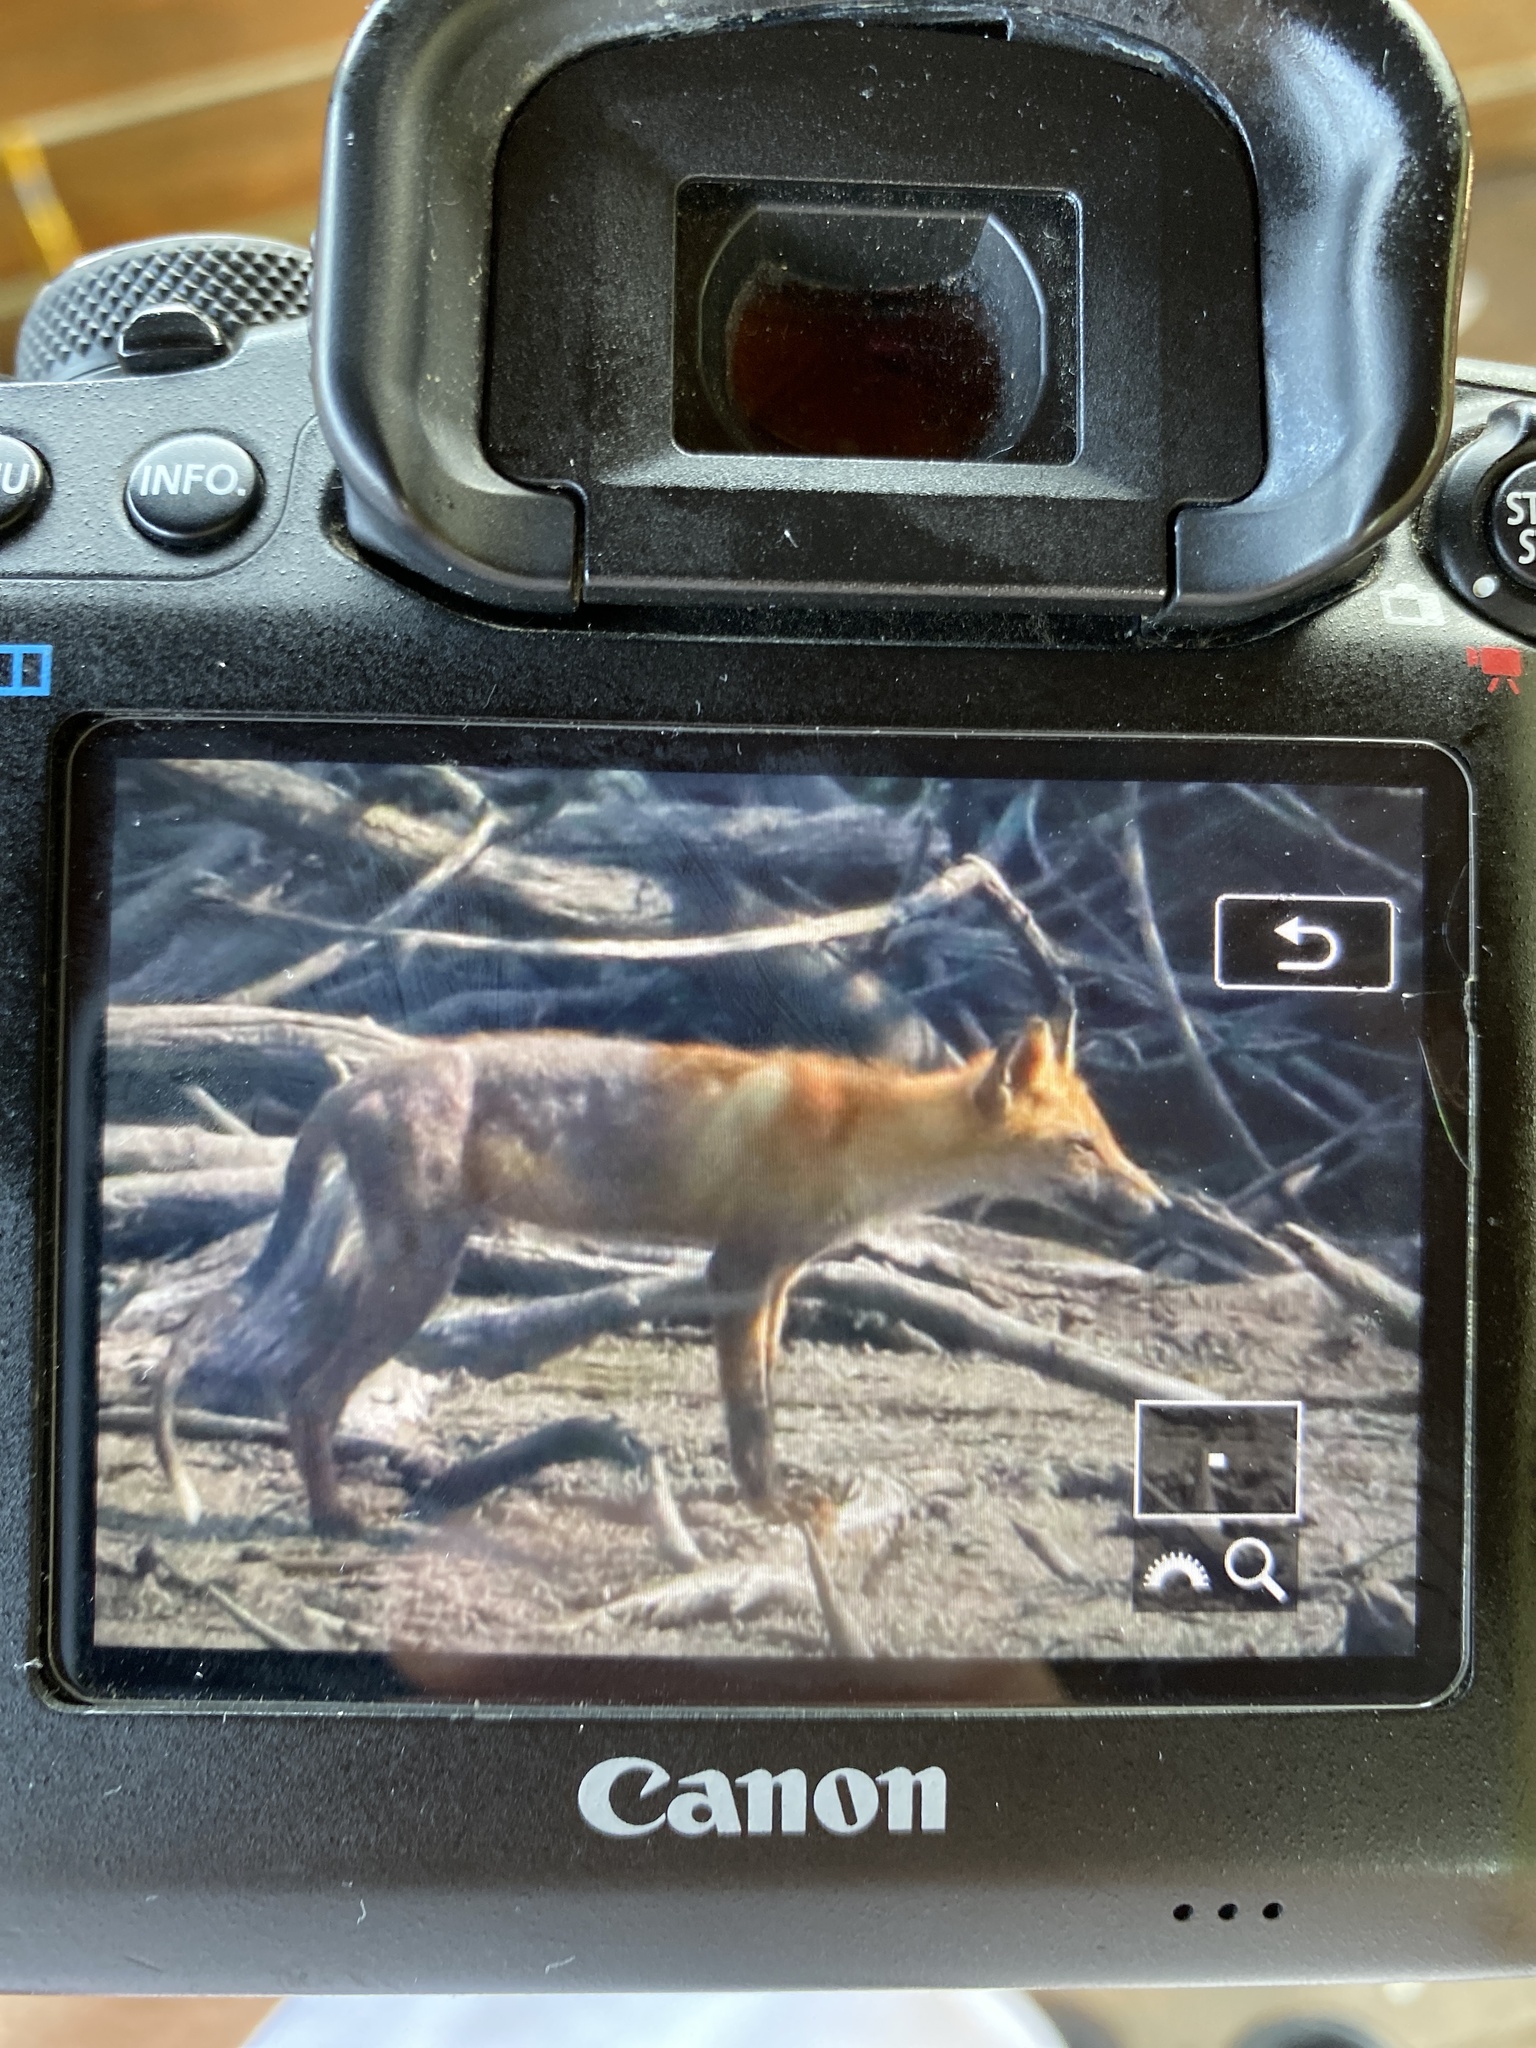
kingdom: Animalia
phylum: Chordata
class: Mammalia
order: Carnivora
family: Canidae
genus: Vulpes
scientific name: Vulpes vulpes
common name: Red fox
